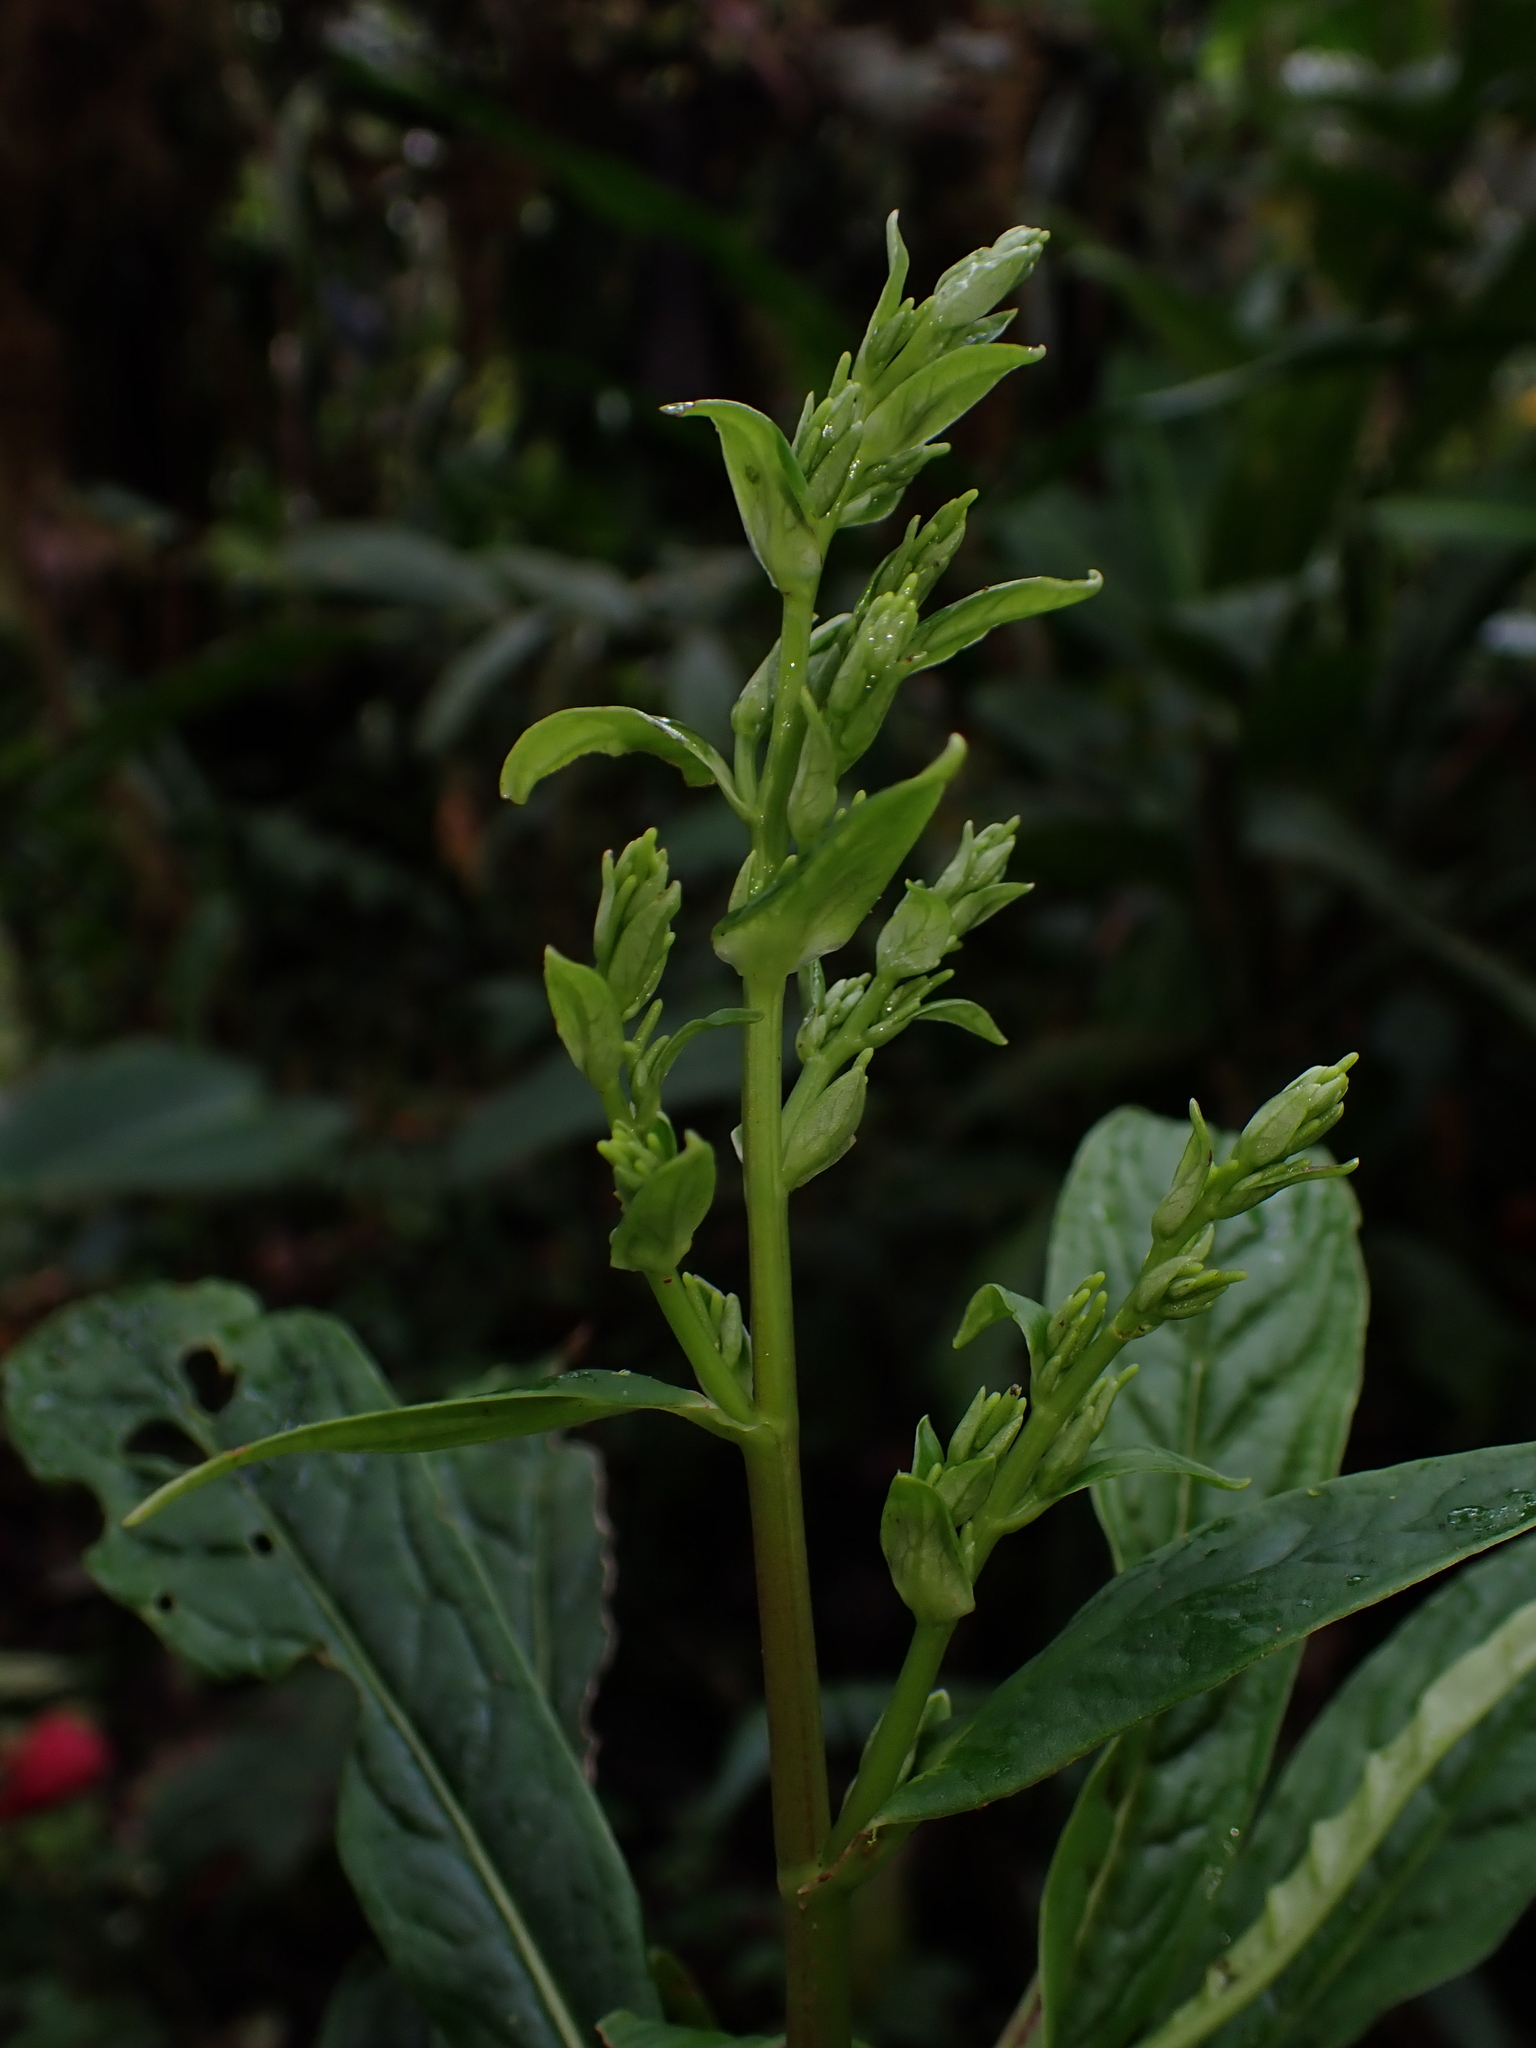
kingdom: Plantae
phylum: Tracheophyta
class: Magnoliopsida
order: Piperales
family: Piperaceae
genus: Peperomia
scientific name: Peperomia pyramidata
